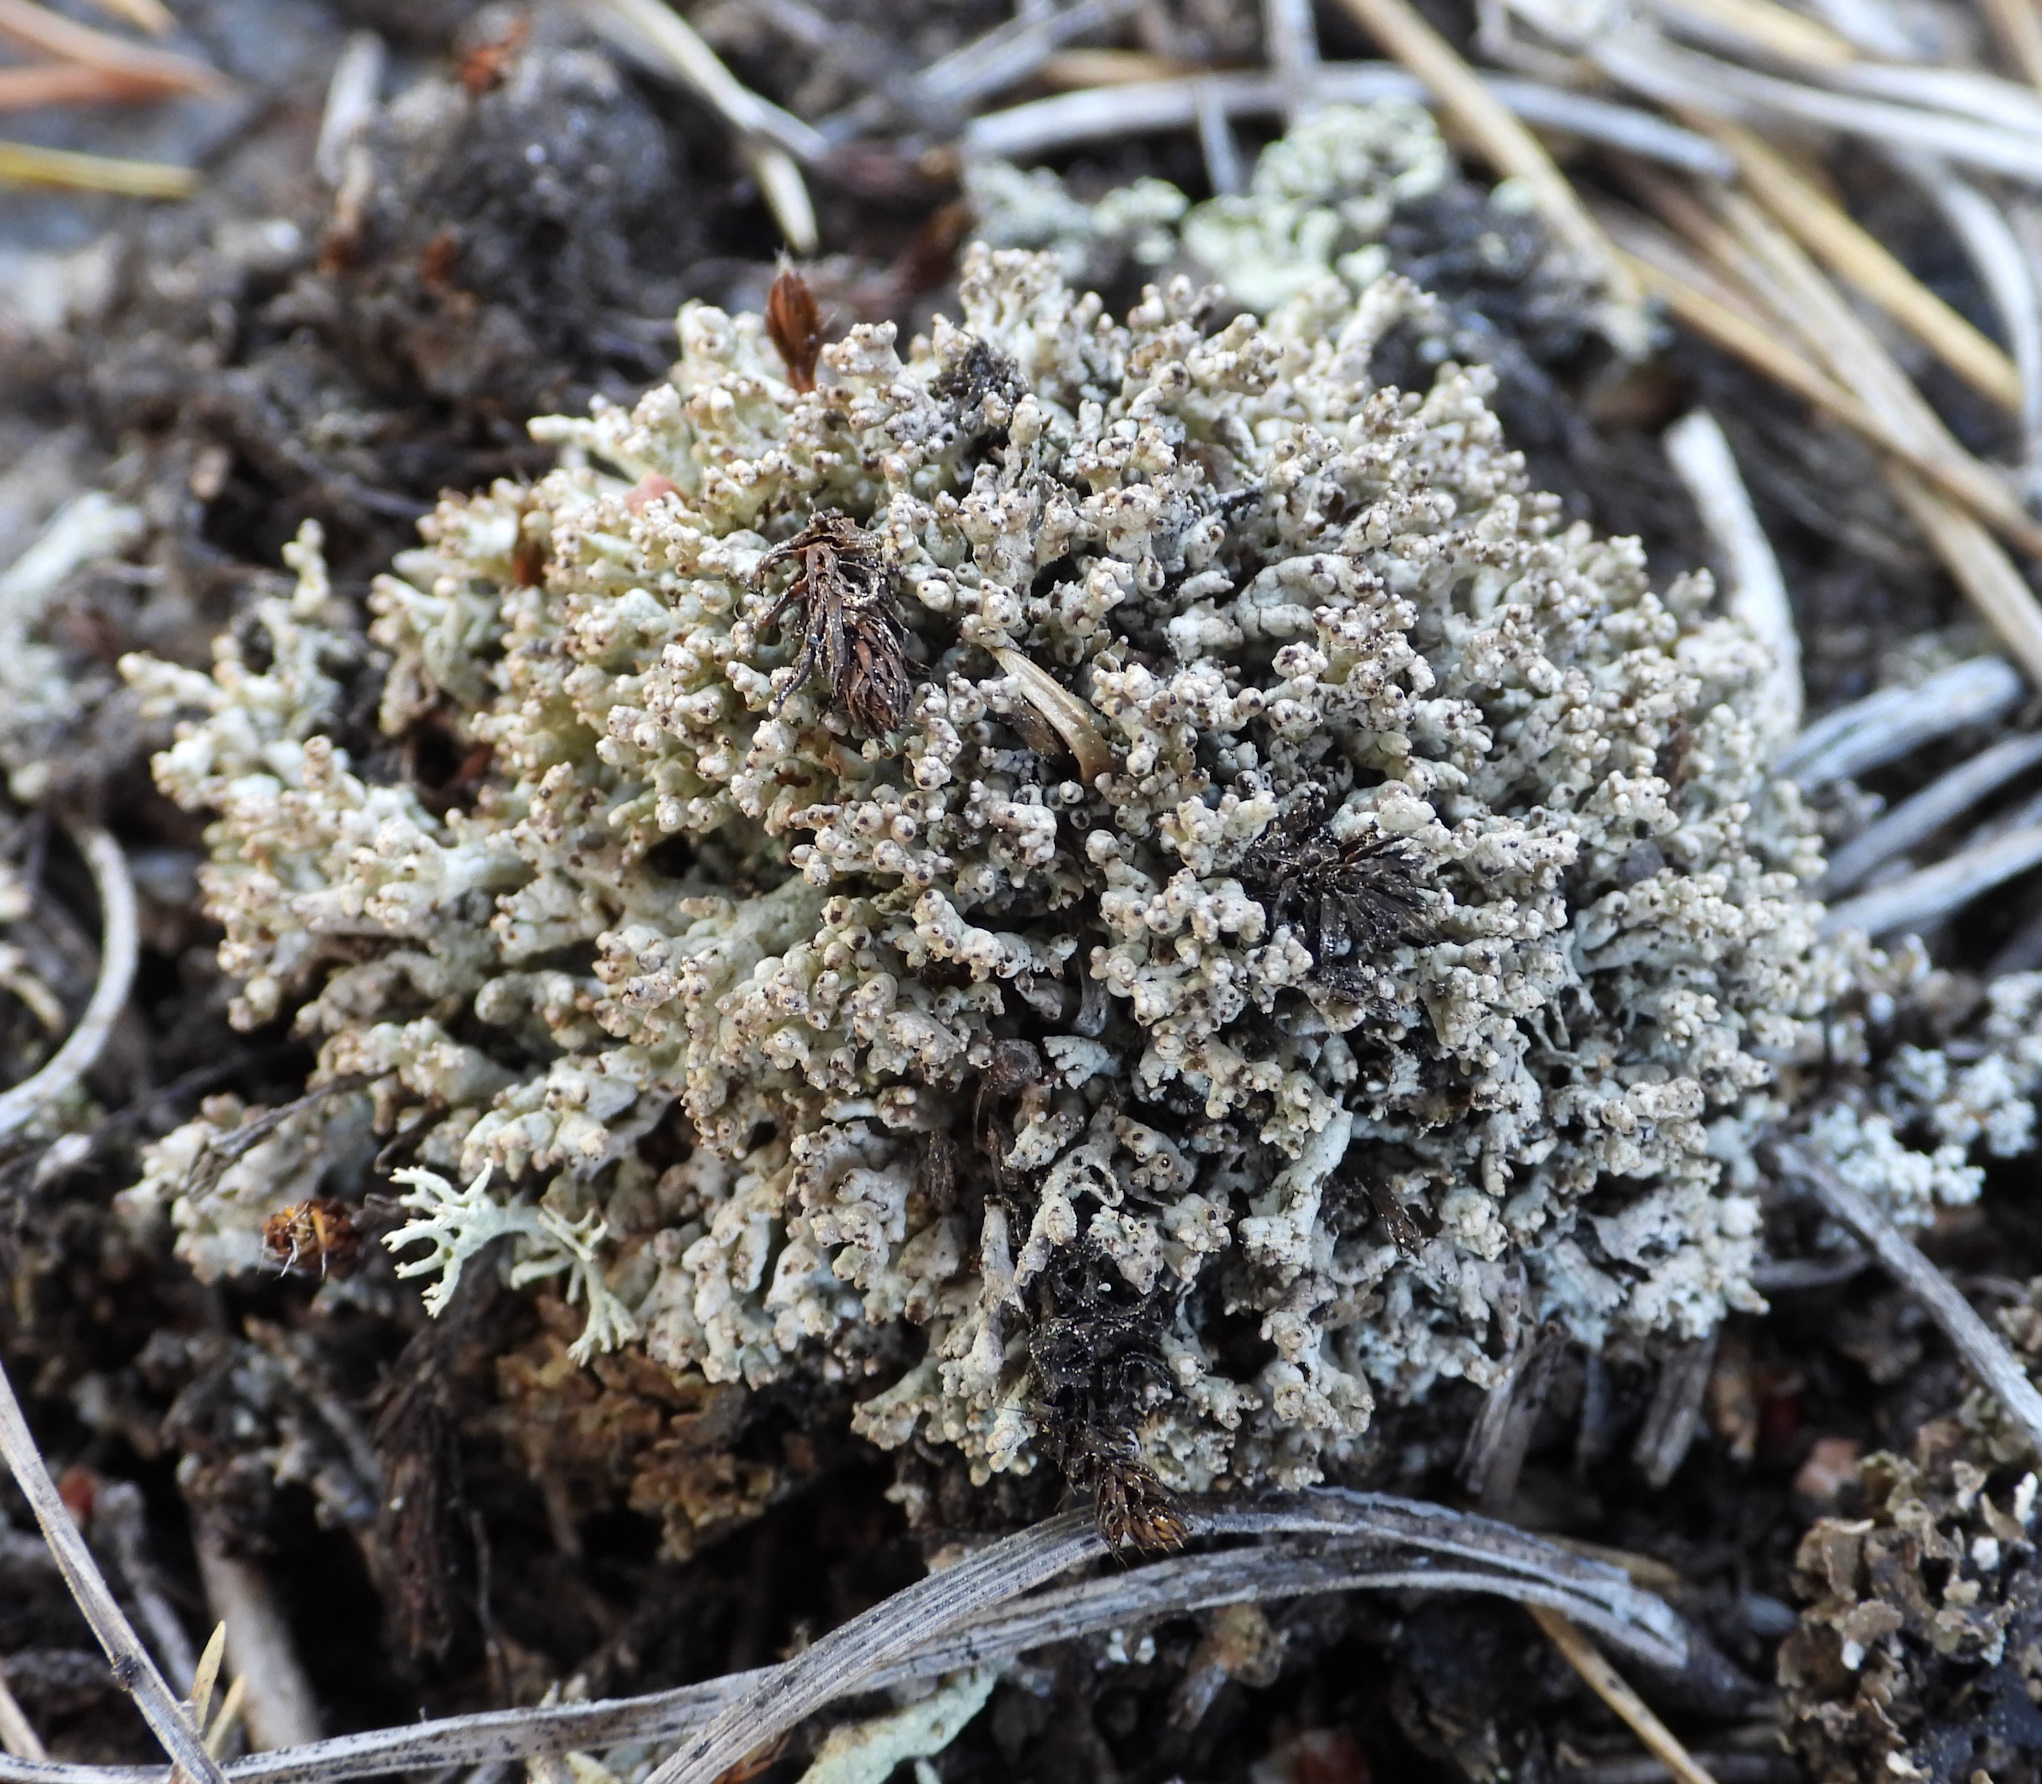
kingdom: Fungi
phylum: Ascomycota
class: Lecanoromycetes
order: Lecanorales
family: Cladoniaceae
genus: Pycnothelia
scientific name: Pycnothelia papillaria
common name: Nipple lichen
